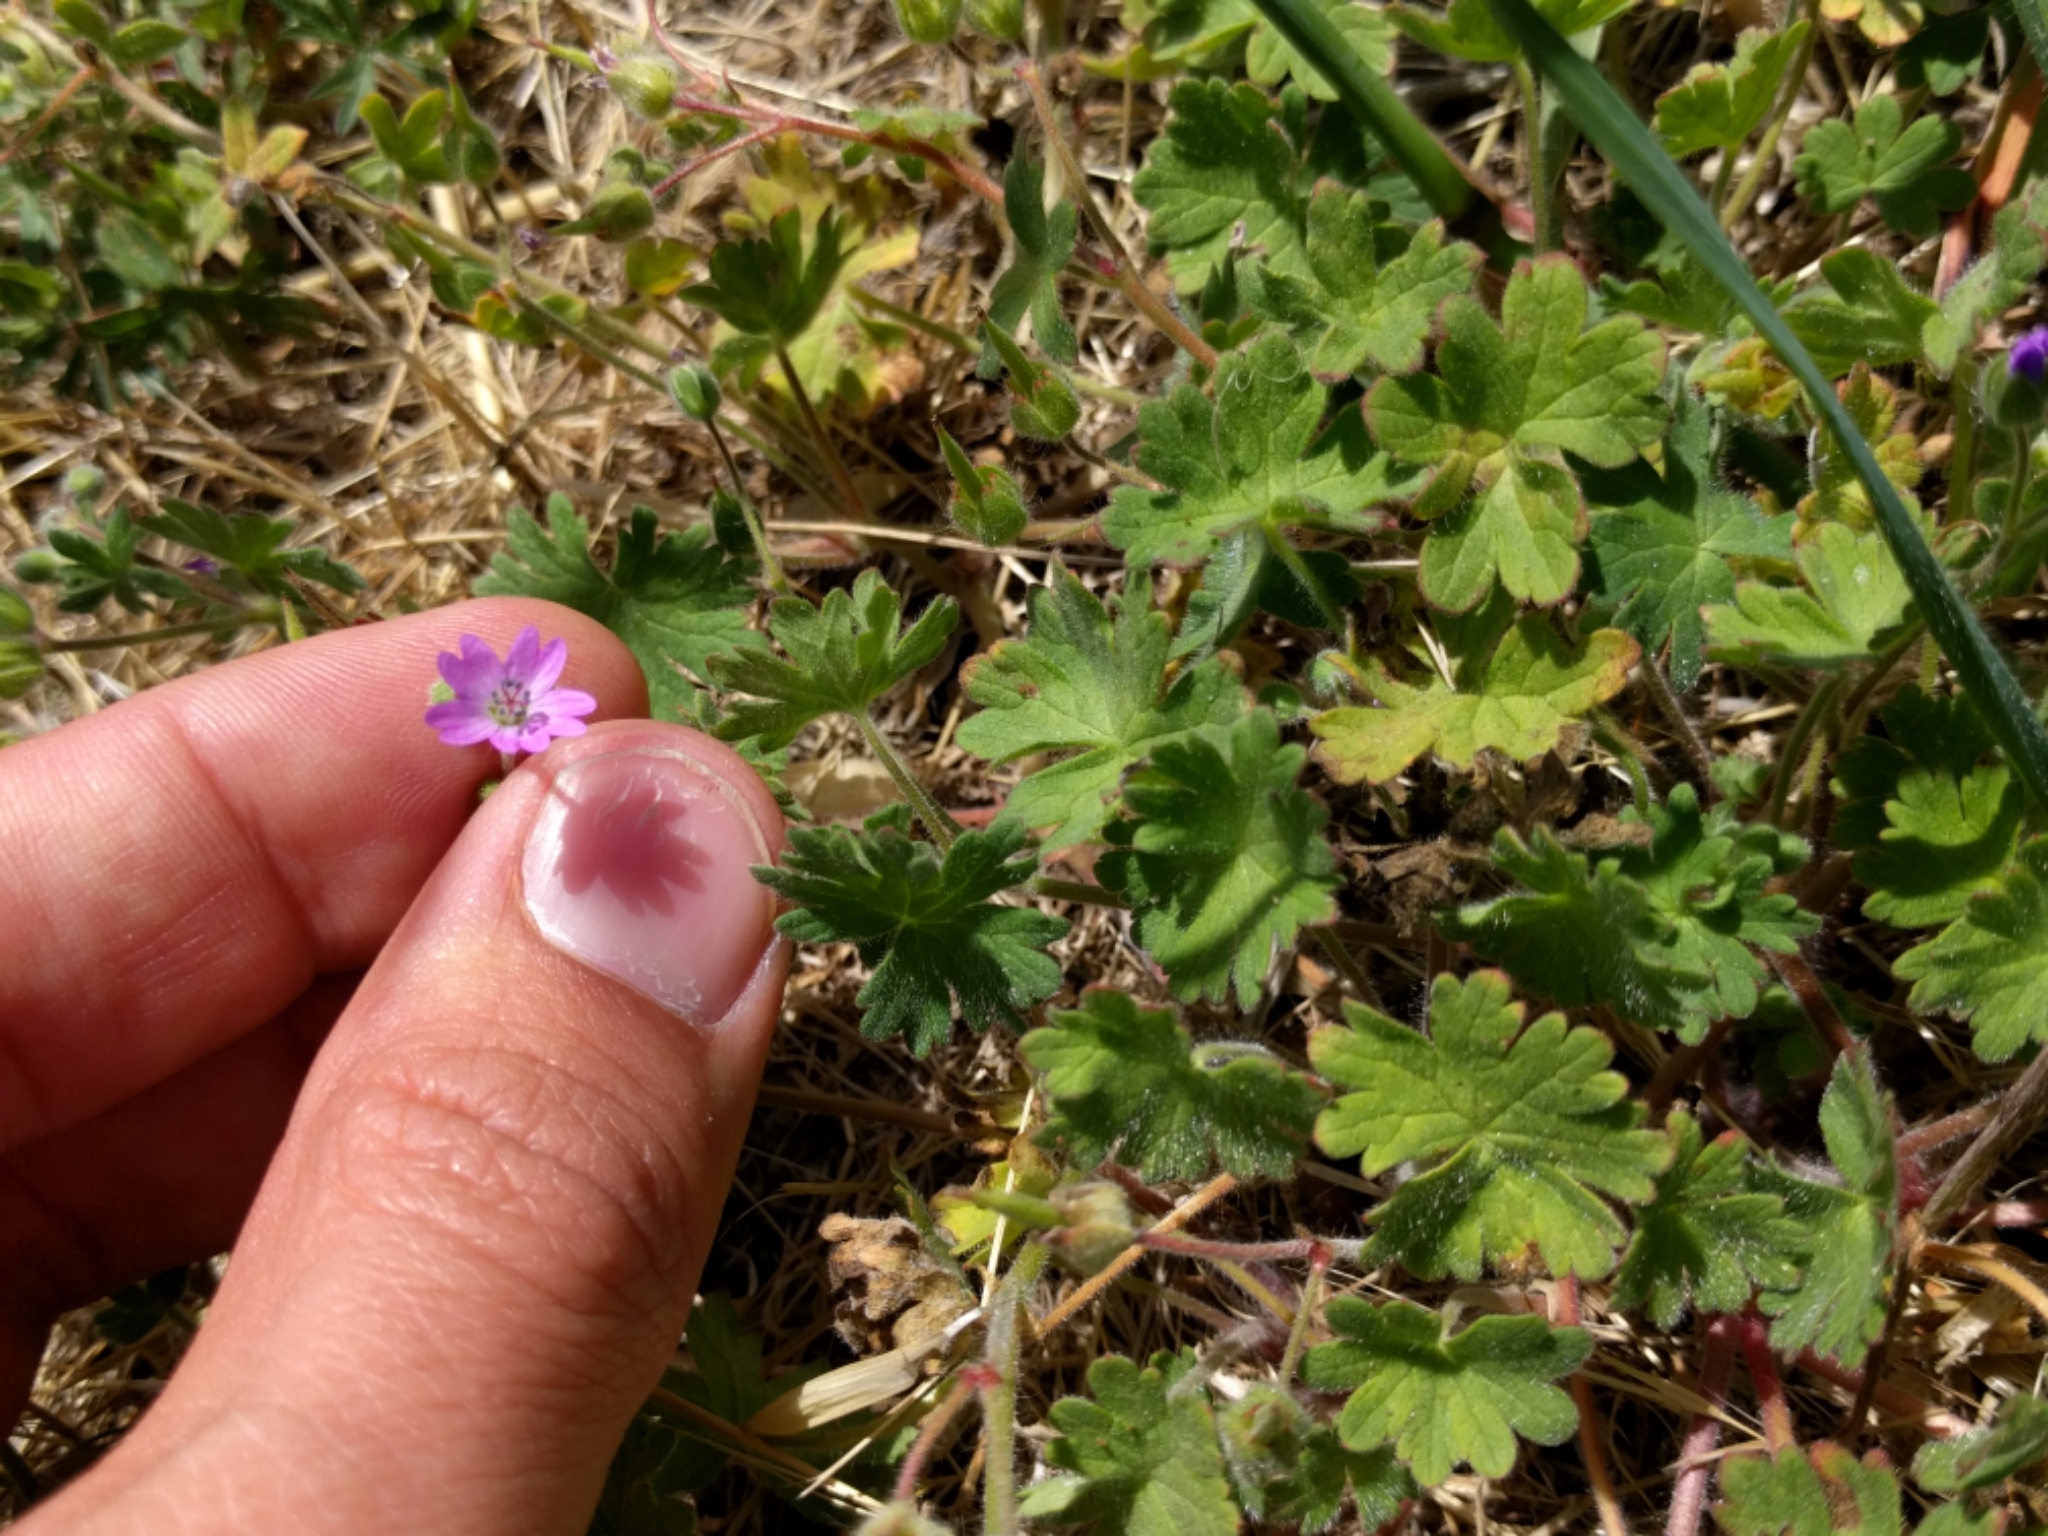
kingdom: Plantae
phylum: Tracheophyta
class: Magnoliopsida
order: Geraniales
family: Geraniaceae
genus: Geranium
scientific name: Geranium molle
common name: Dove's-foot crane's-bill
